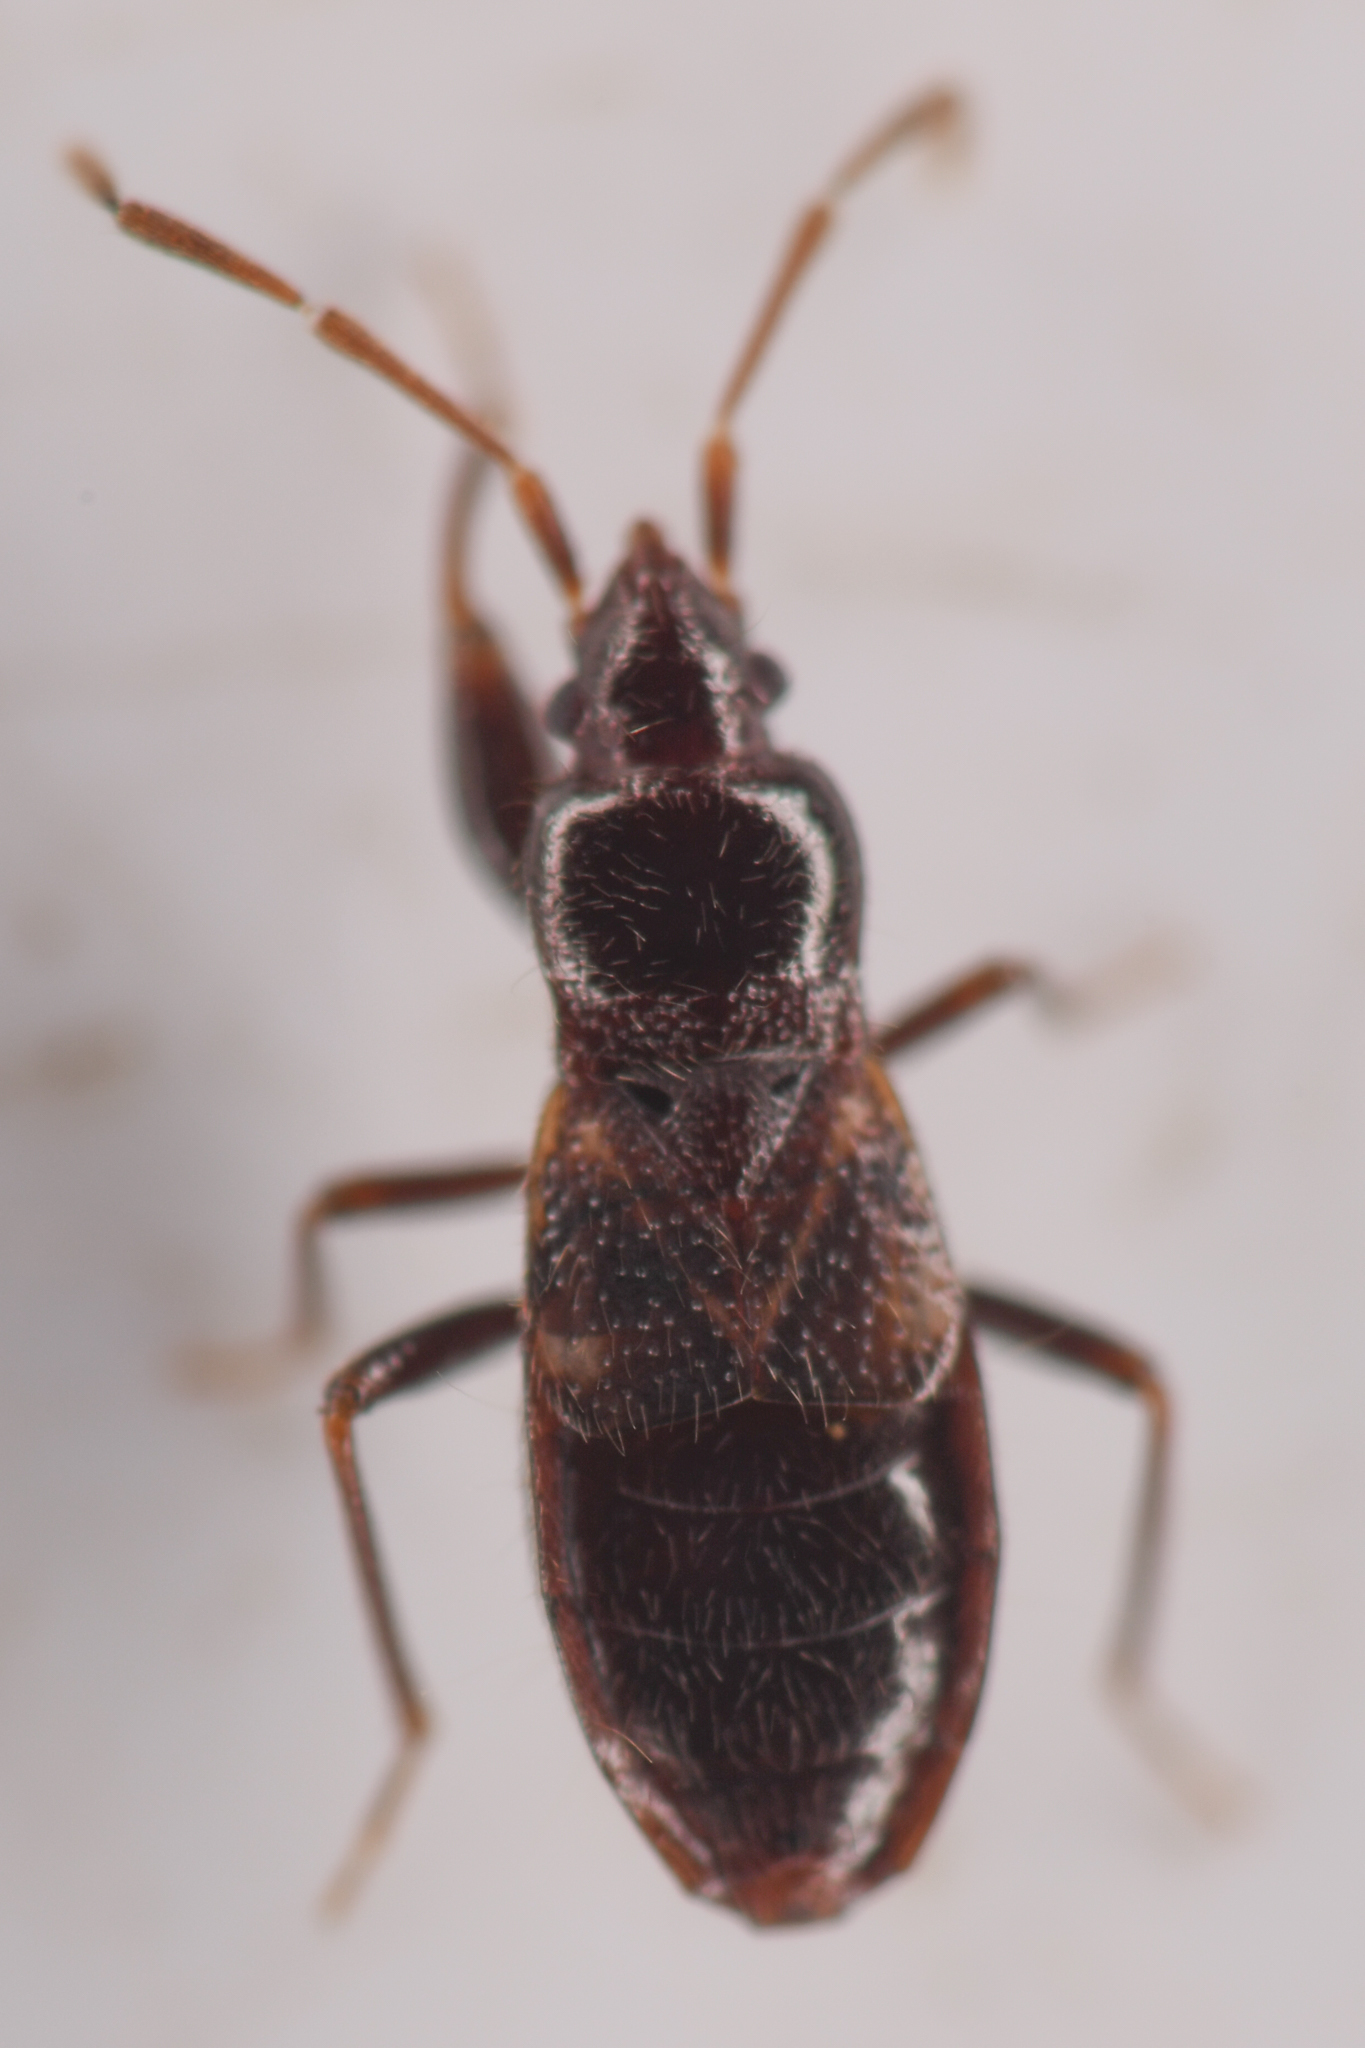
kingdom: Animalia
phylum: Arthropoda
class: Insecta
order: Hemiptera
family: Rhyparochromidae
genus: Thylochromus
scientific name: Thylochromus nitidulus
